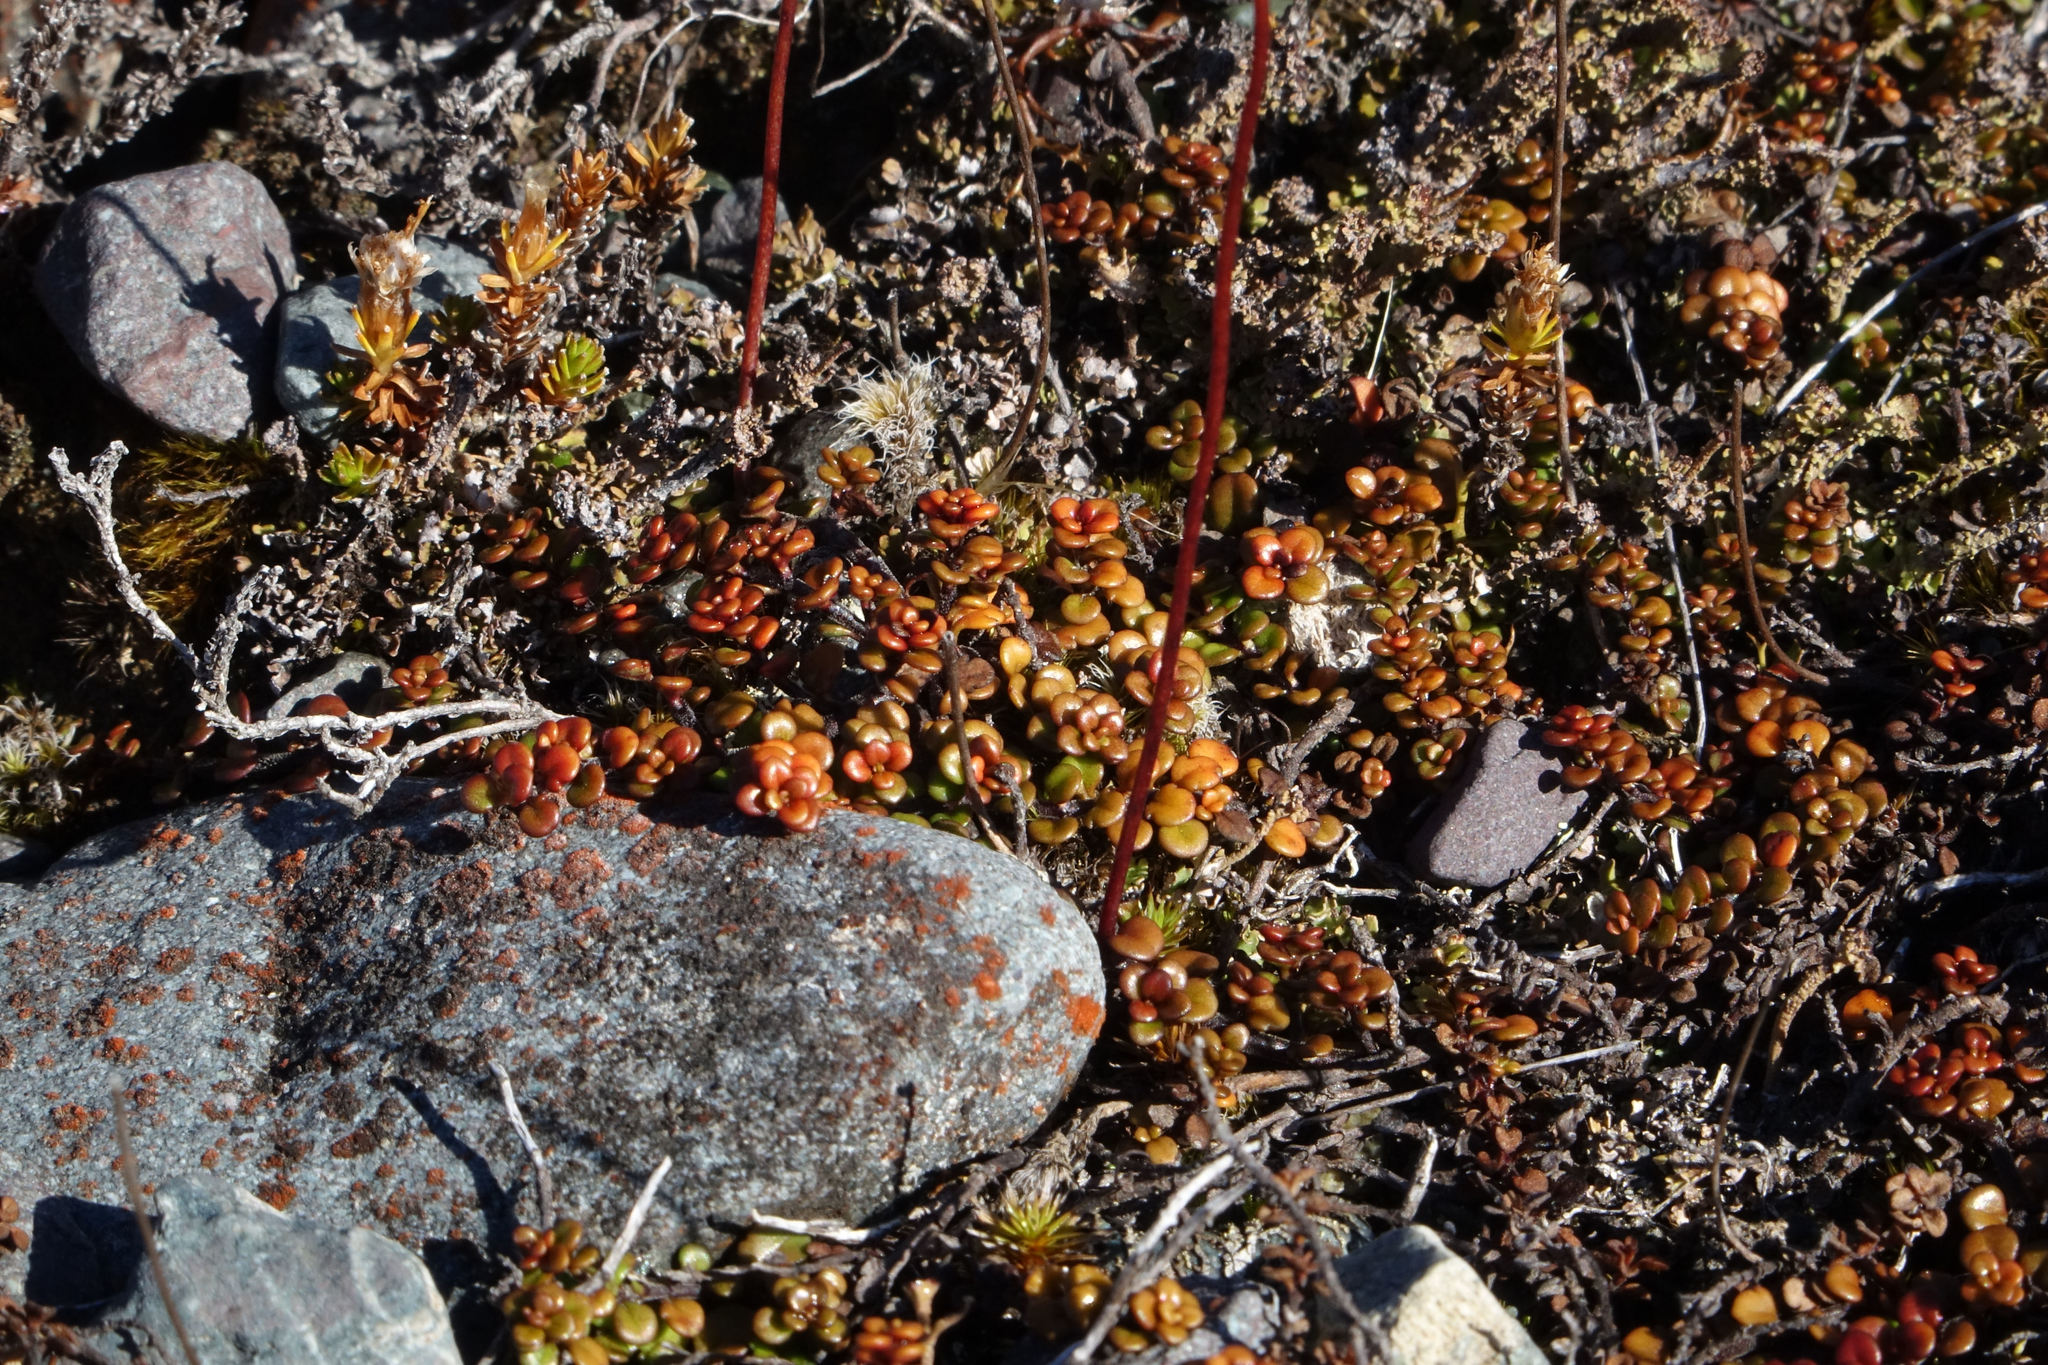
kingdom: Plantae
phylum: Tracheophyta
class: Magnoliopsida
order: Lamiales
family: Plantaginaceae
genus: Veronica
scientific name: Veronica decora
